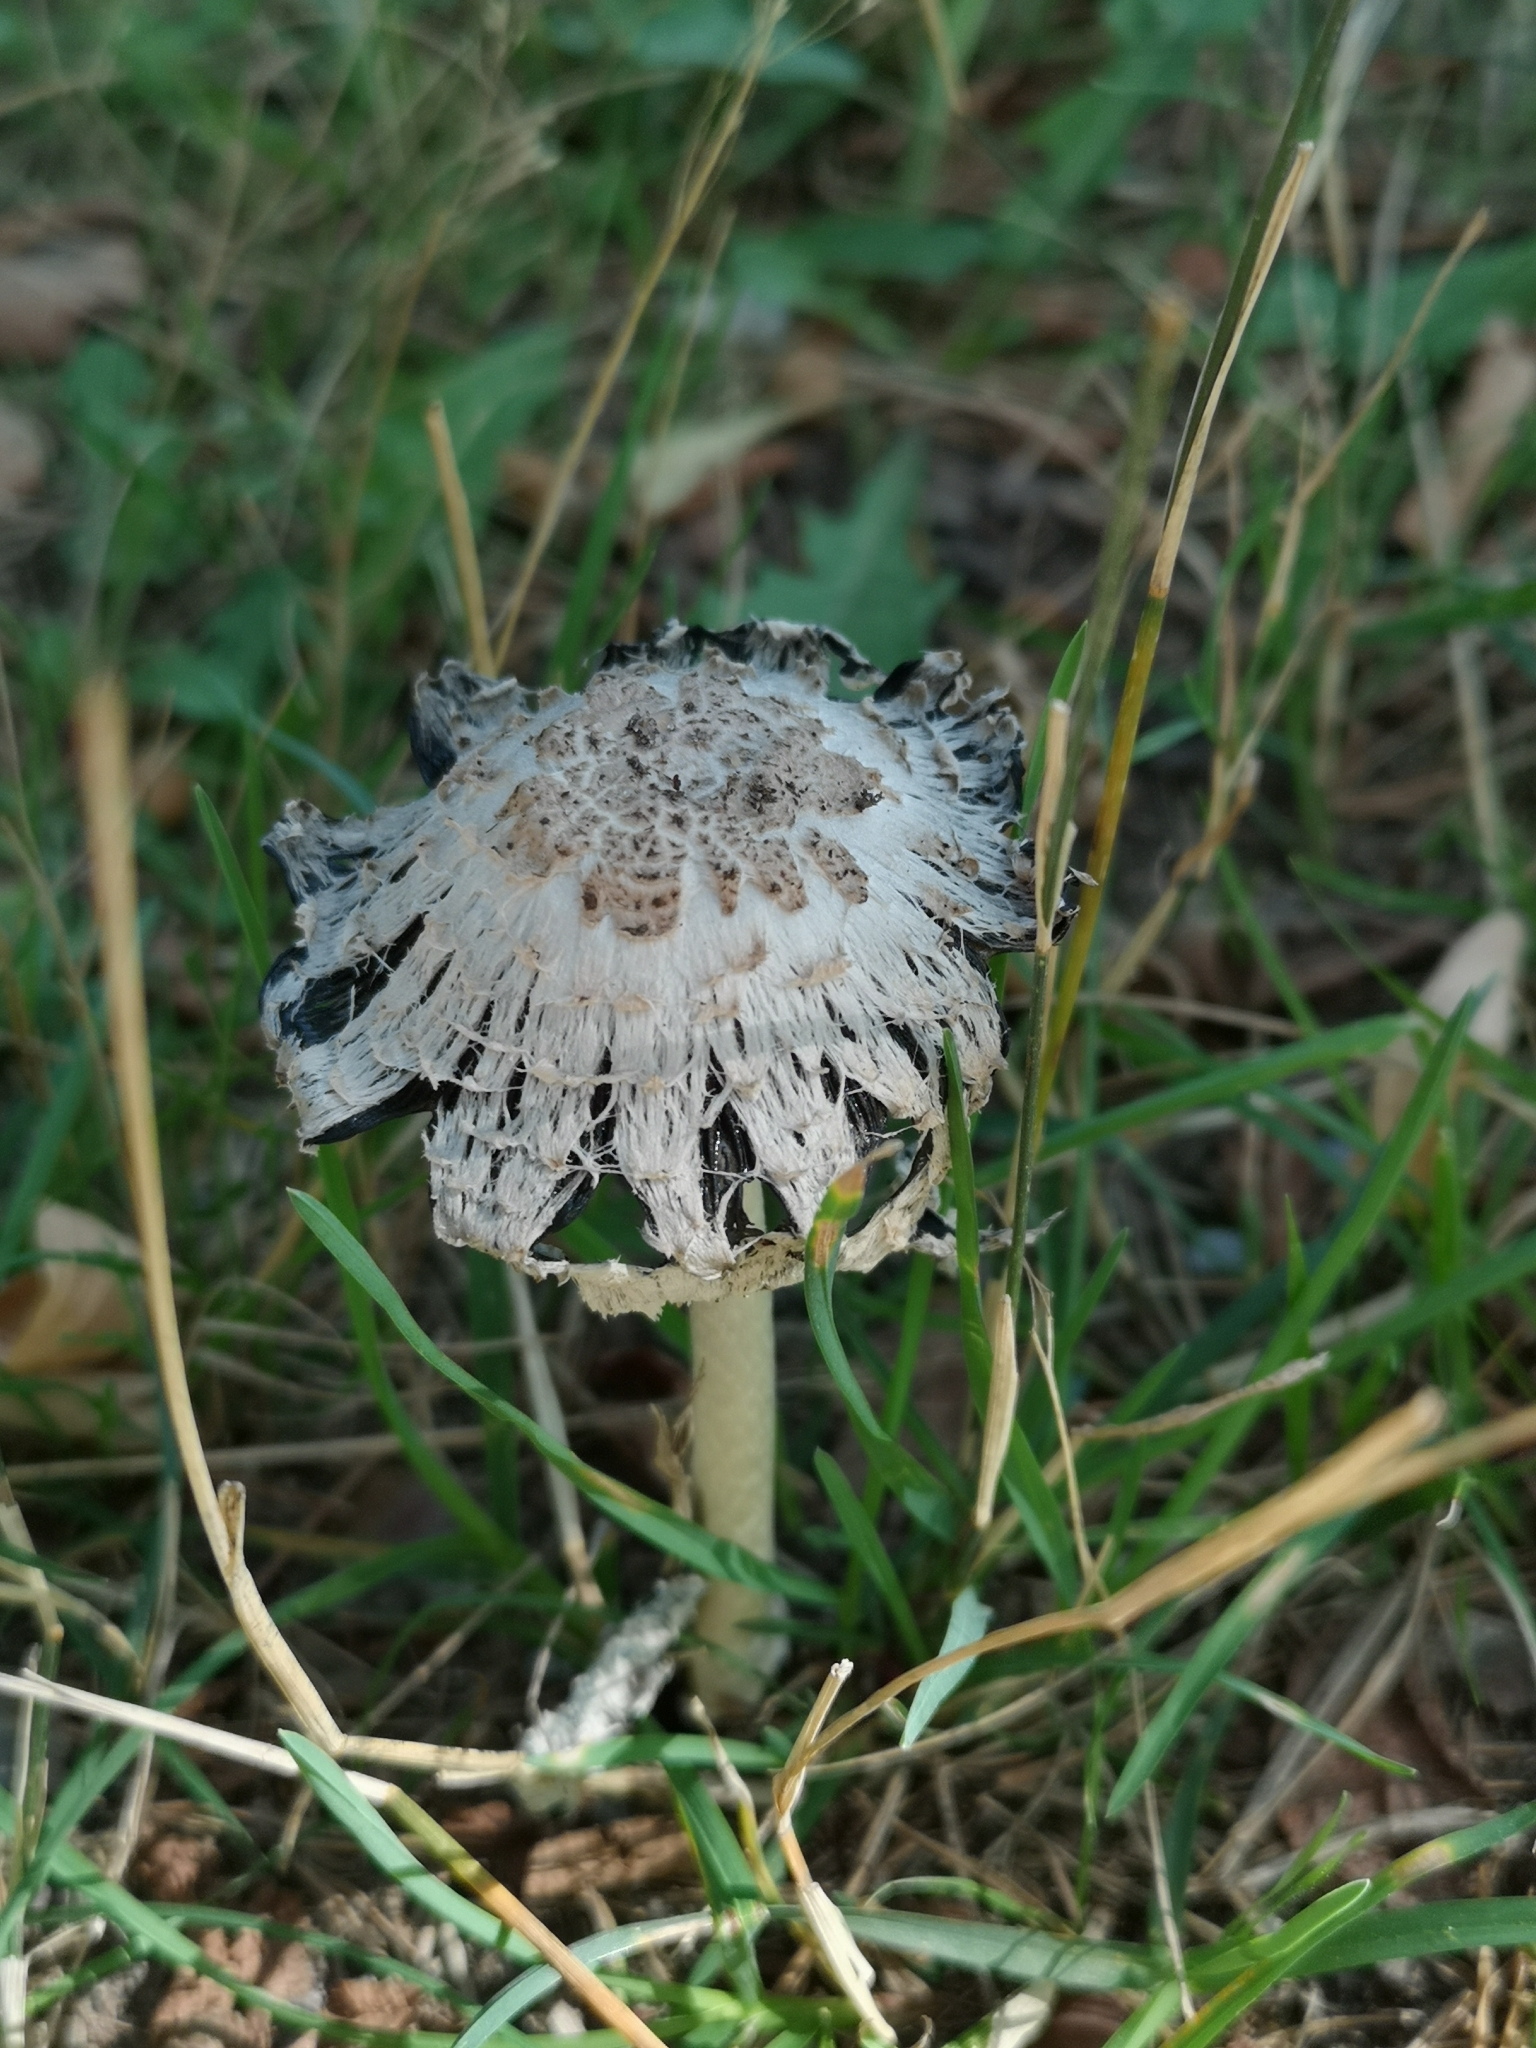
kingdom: Fungi
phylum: Basidiomycota
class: Agaricomycetes
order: Agaricales
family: Agaricaceae
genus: Coprinus
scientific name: Coprinus comatus
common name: Lawyer's wig
